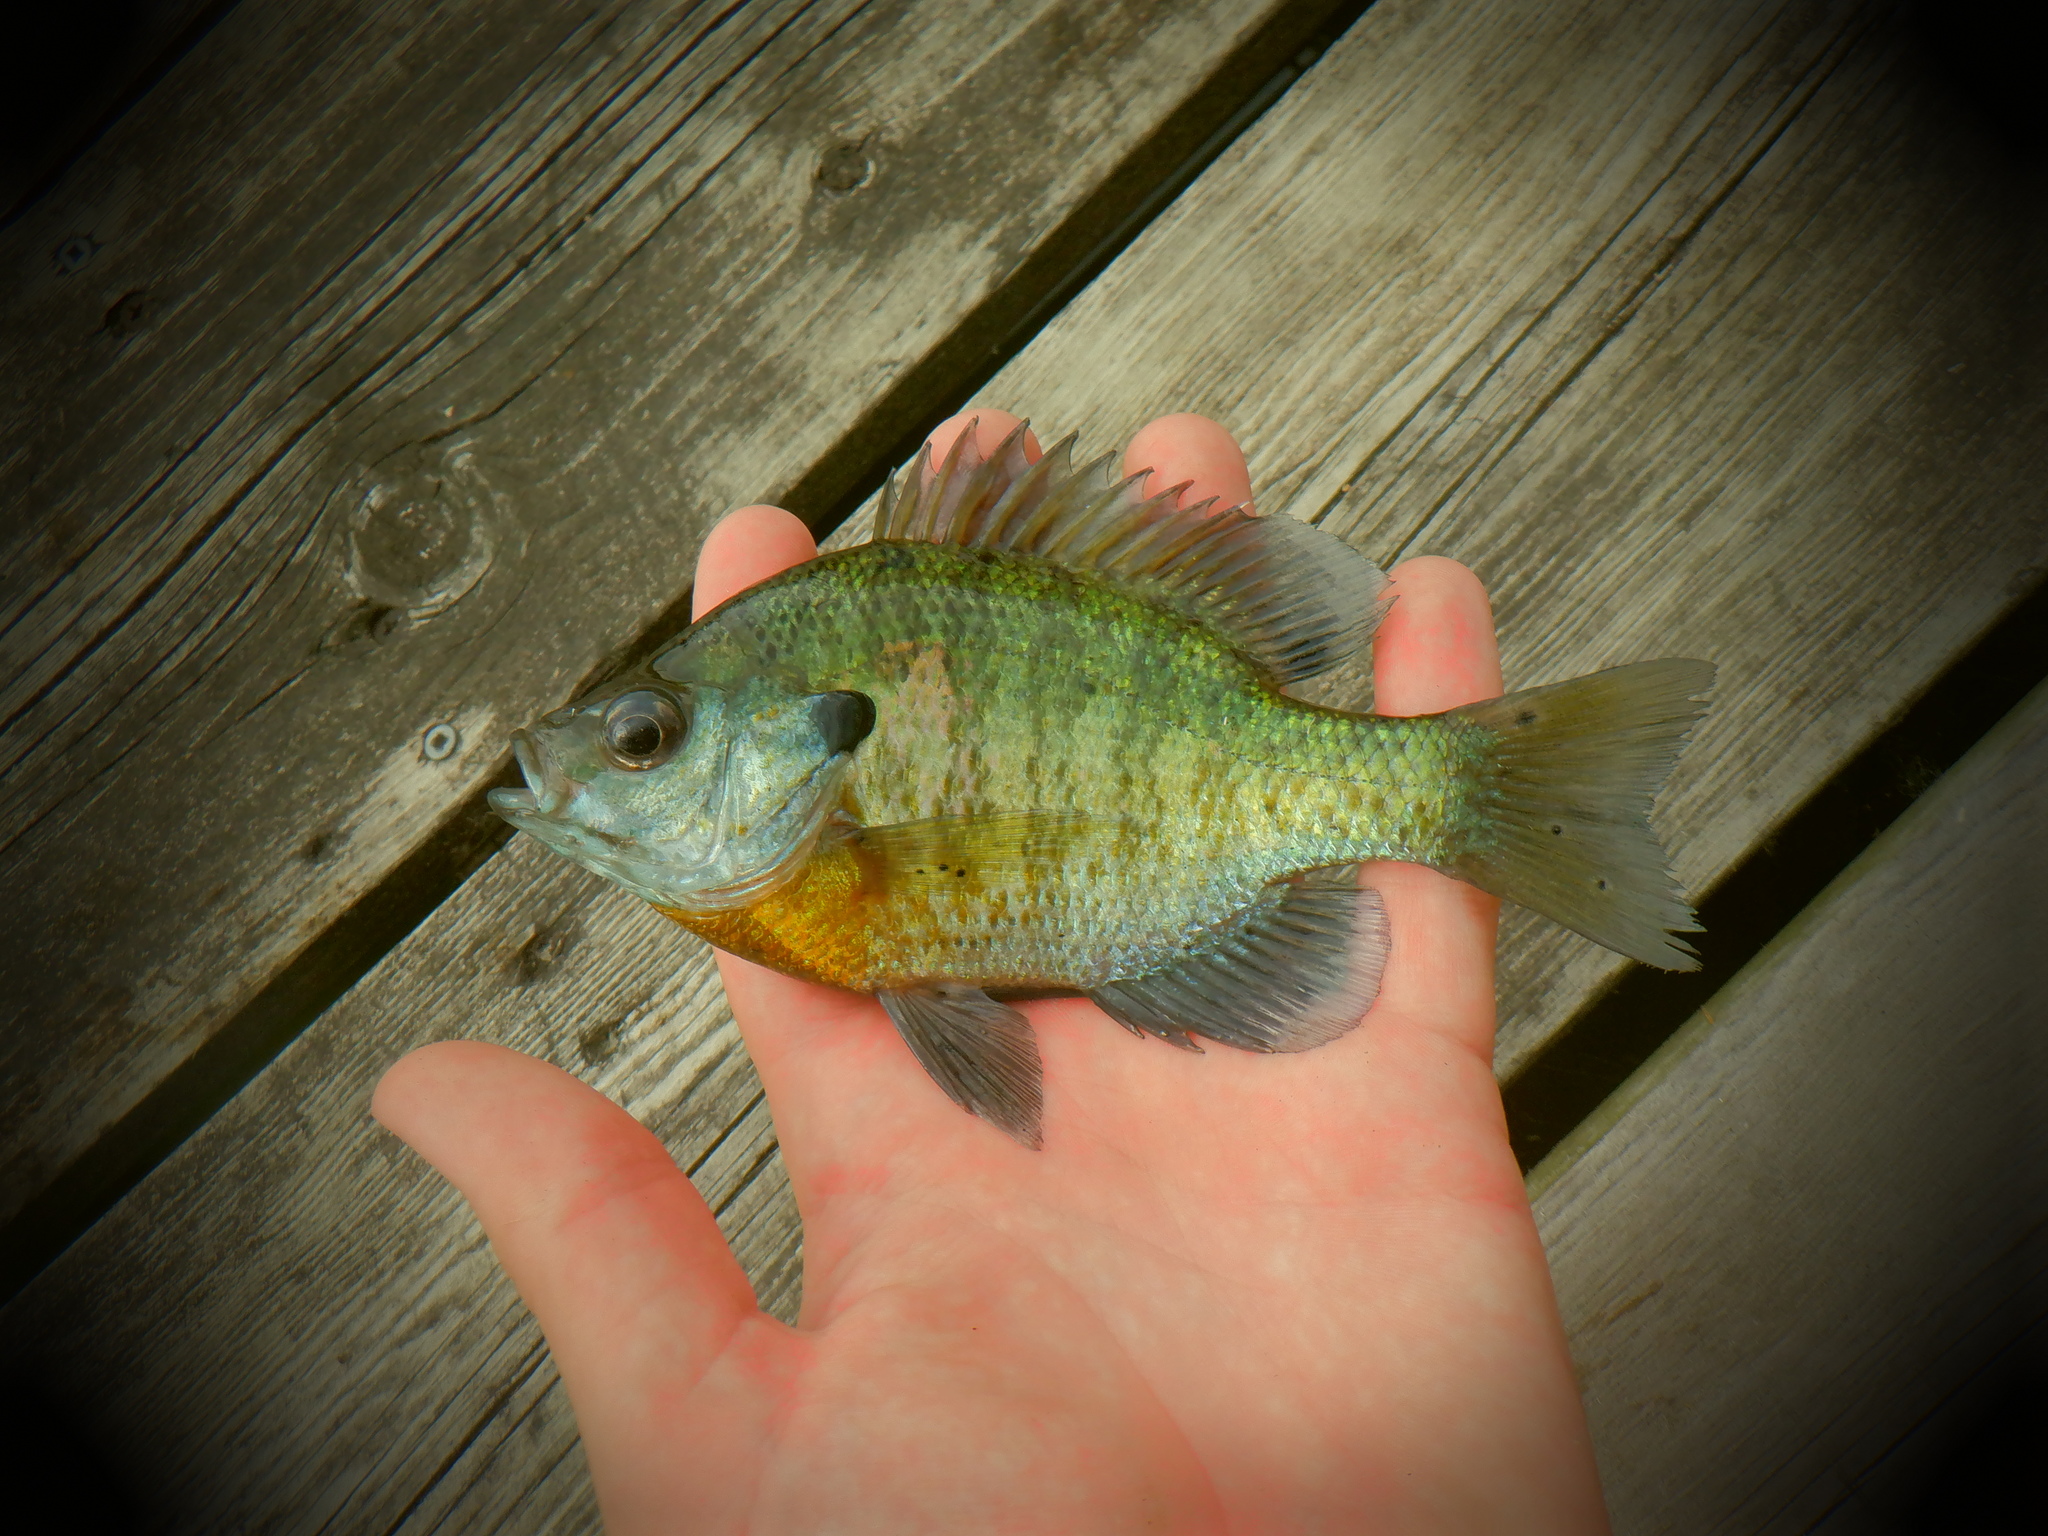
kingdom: Animalia
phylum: Chordata
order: Perciformes
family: Centrarchidae
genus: Lepomis
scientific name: Lepomis macrochirus
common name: Bluegill
